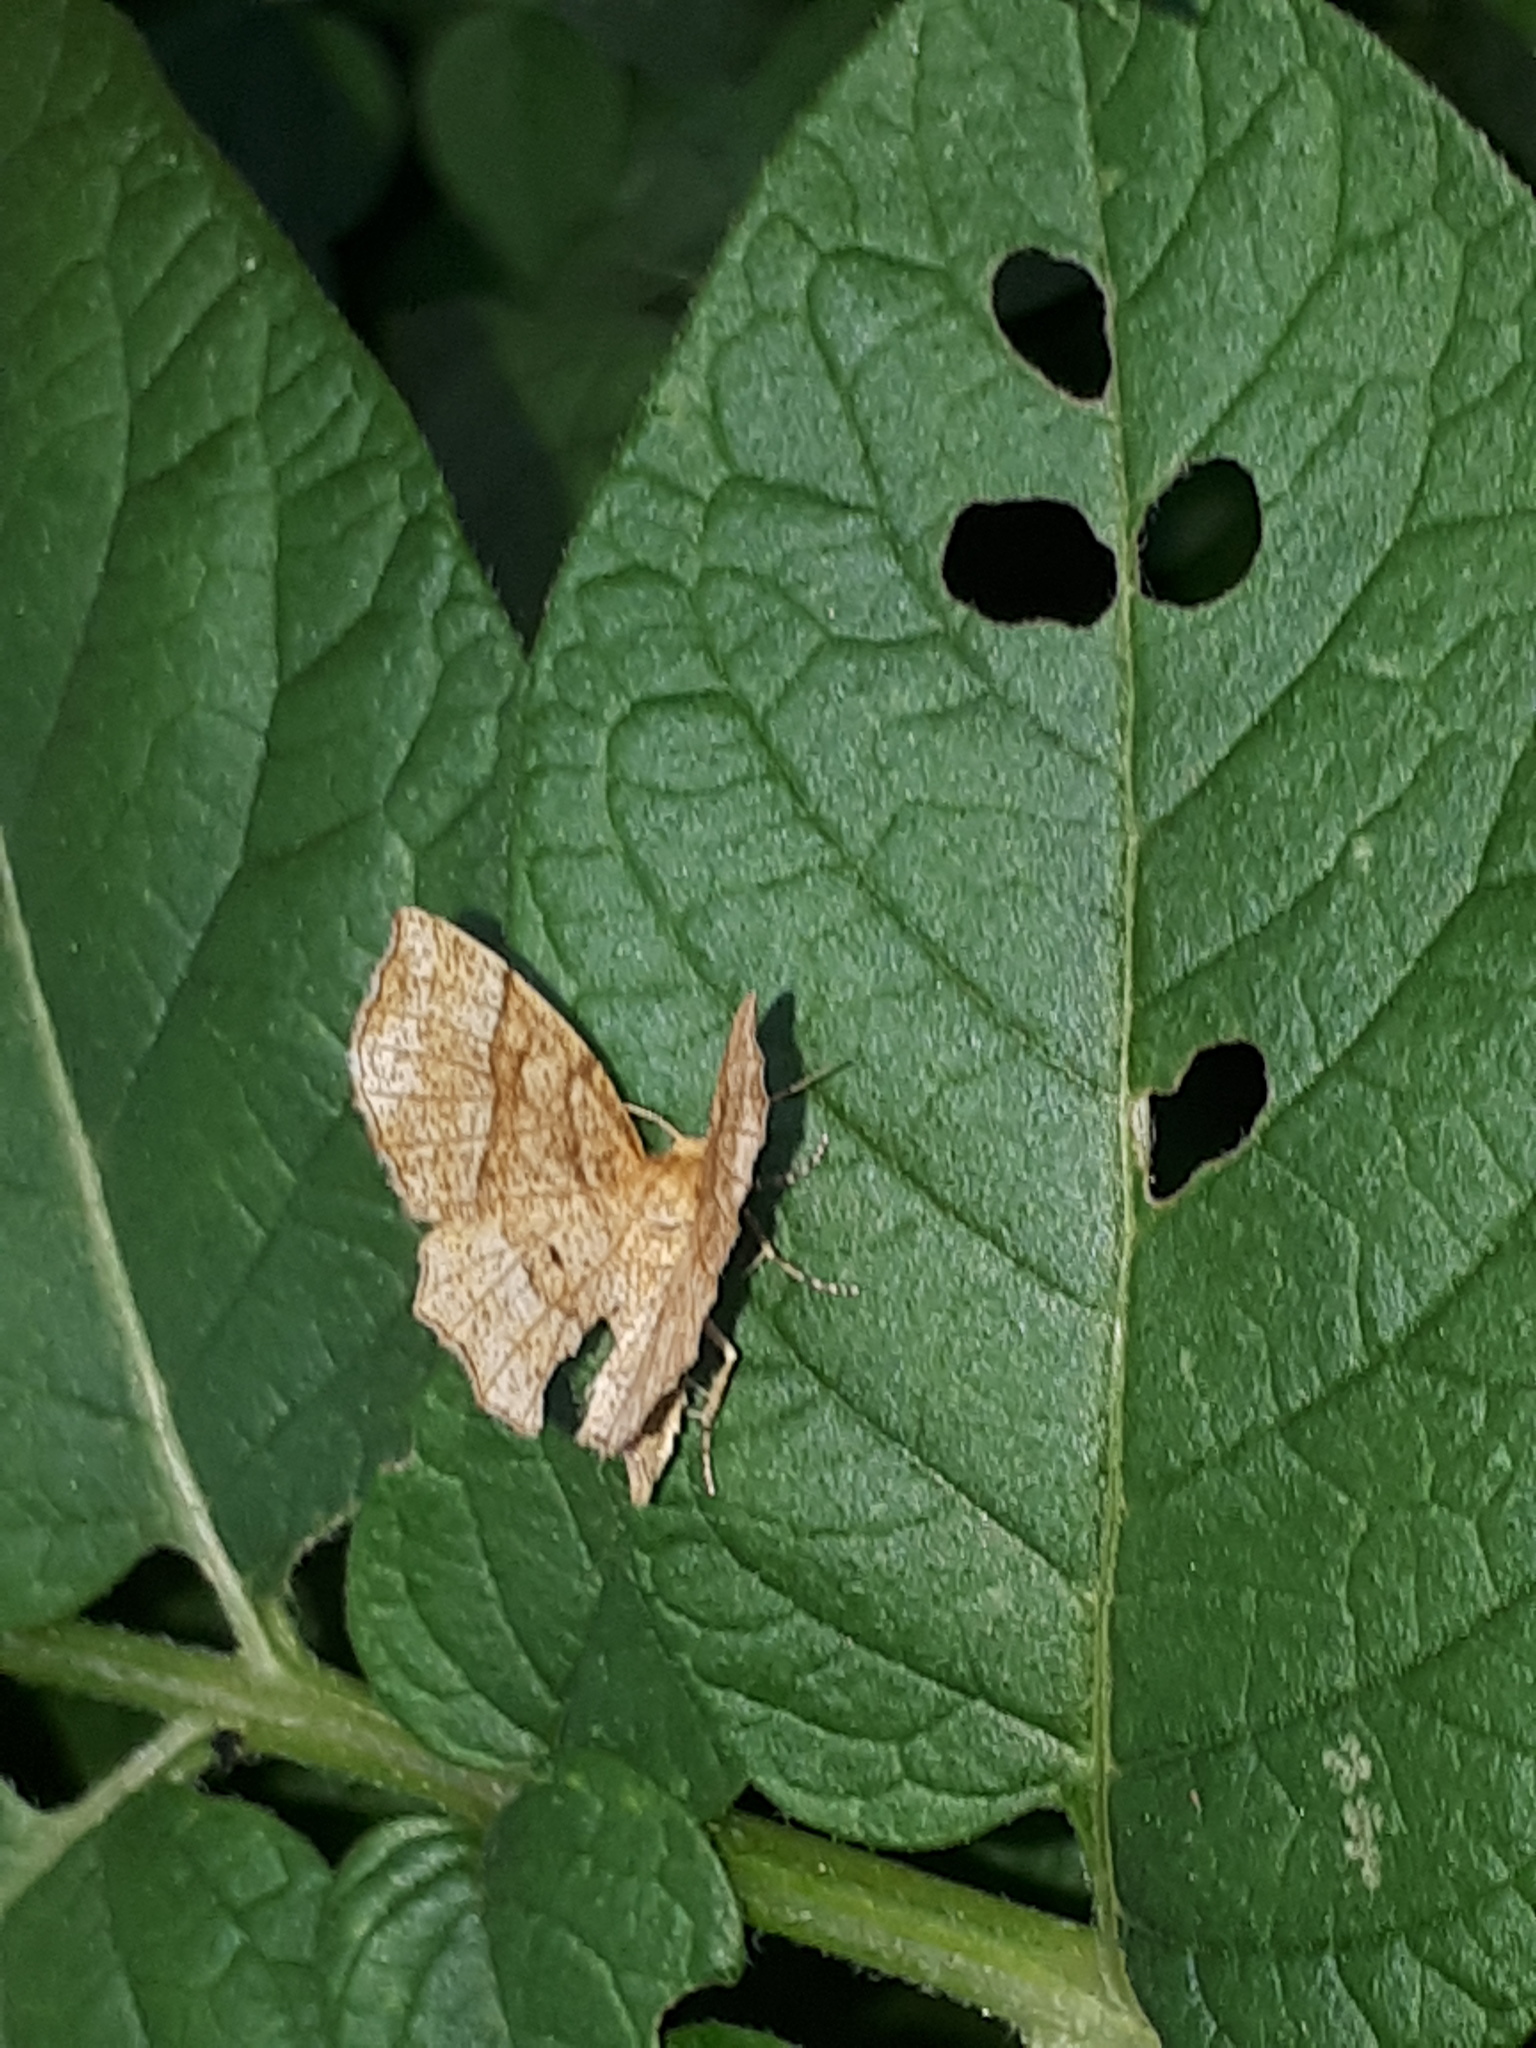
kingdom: Animalia
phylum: Arthropoda
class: Insecta
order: Lepidoptera
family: Geometridae
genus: Cepphis
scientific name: Cepphis advenaria
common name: Little thorn
